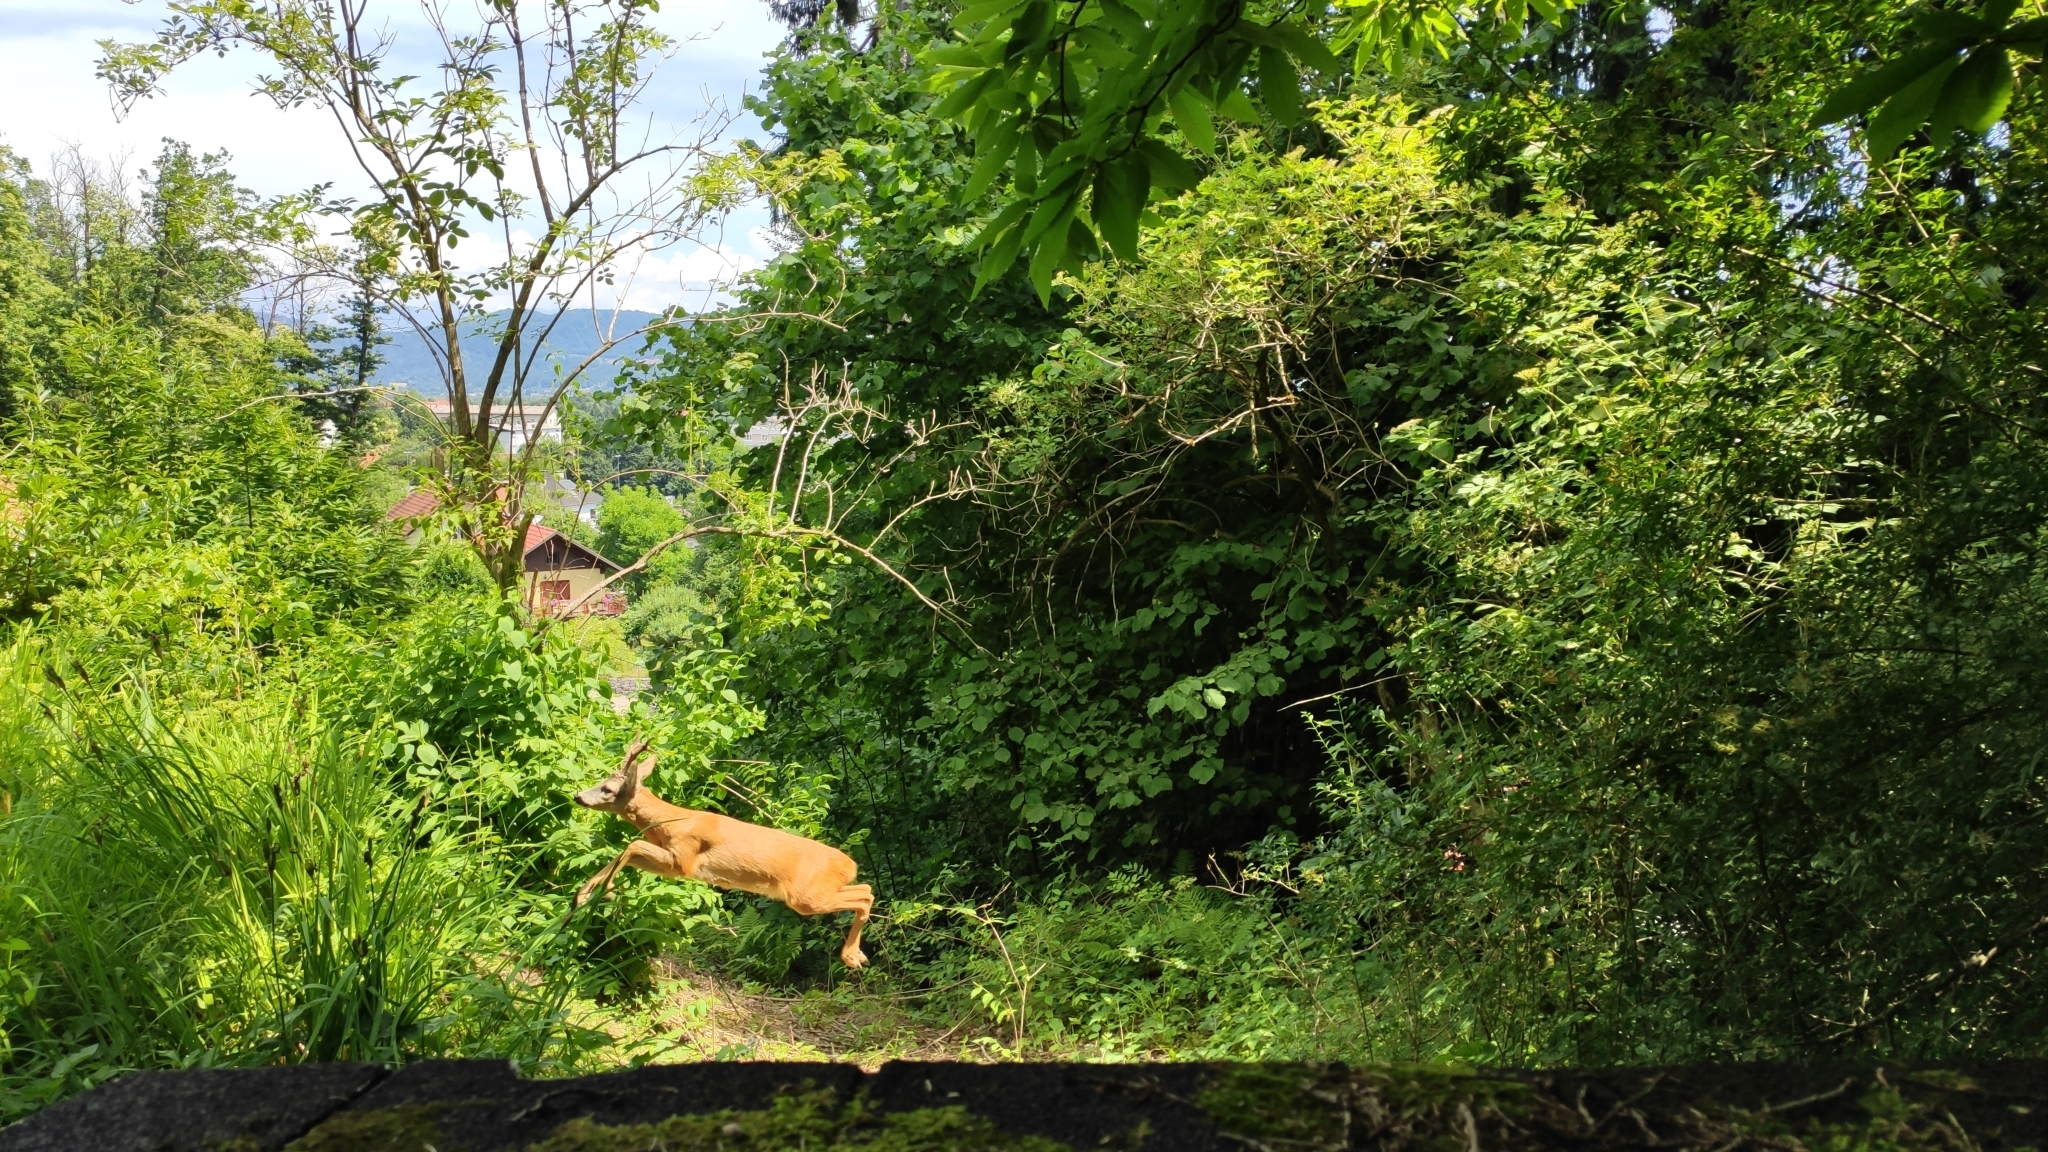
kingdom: Animalia
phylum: Chordata
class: Mammalia
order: Artiodactyla
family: Cervidae
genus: Capreolus
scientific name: Capreolus capreolus
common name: Western roe deer
